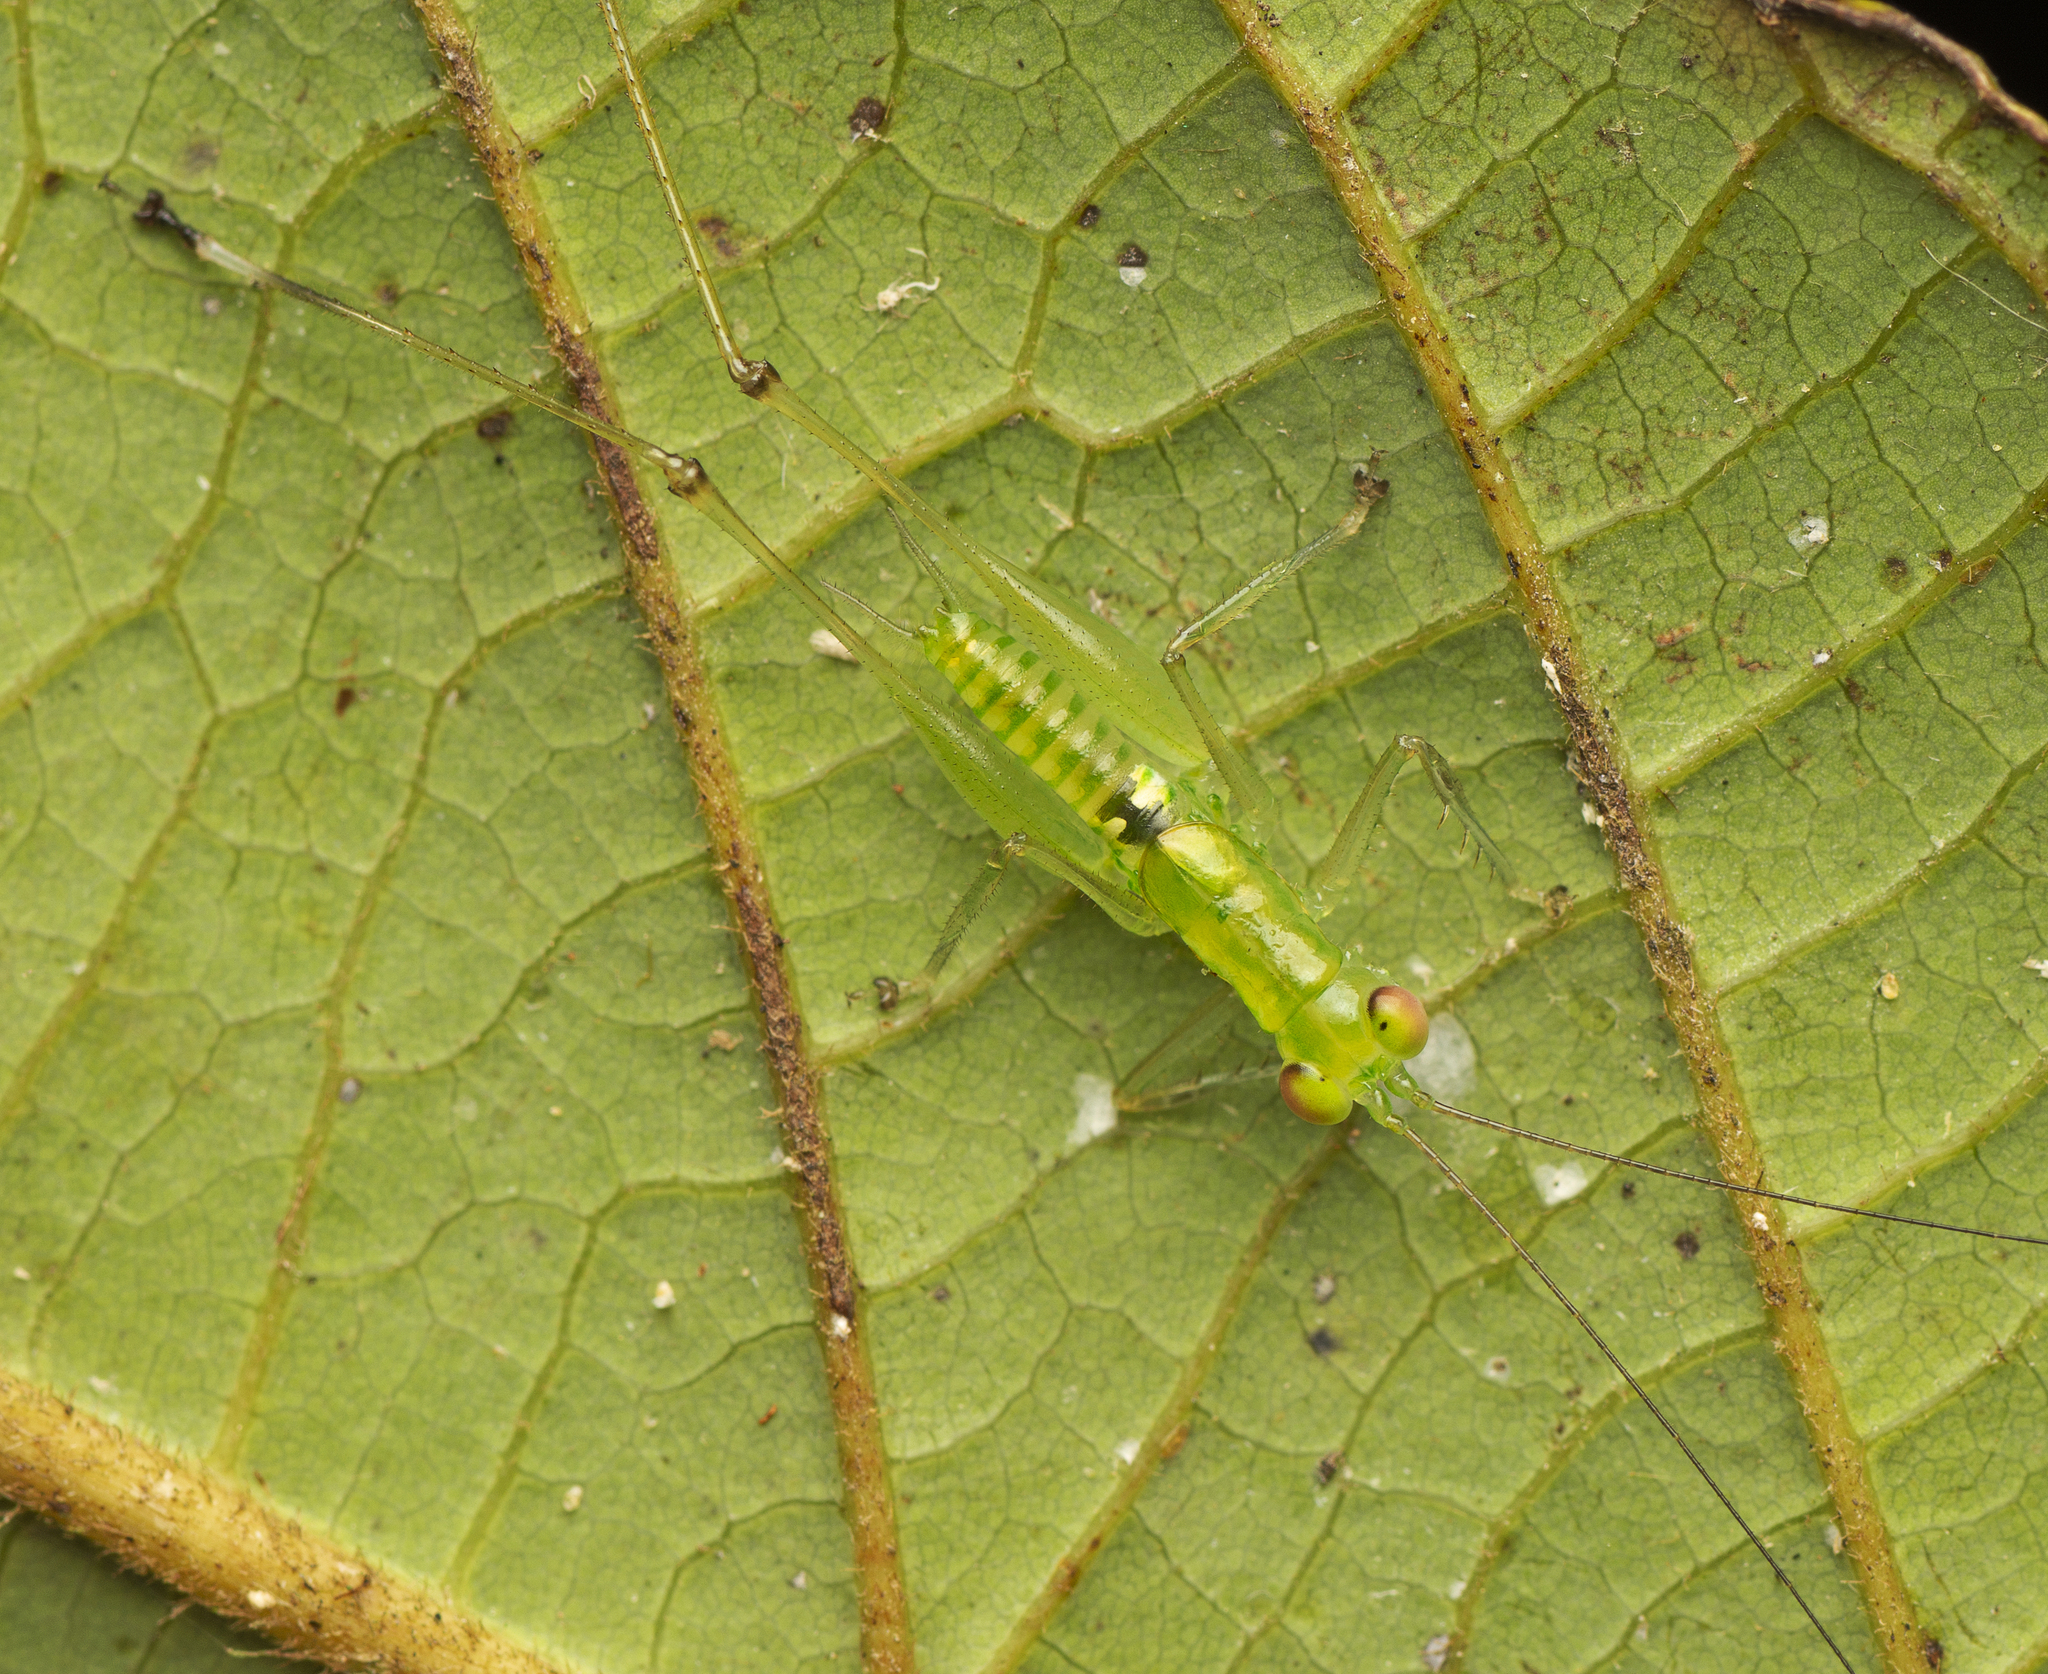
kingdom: Animalia
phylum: Arthropoda
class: Insecta
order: Orthoptera
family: Tettigoniidae
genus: Lucienola
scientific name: Lucienola brittoni
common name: Britton's swayer
